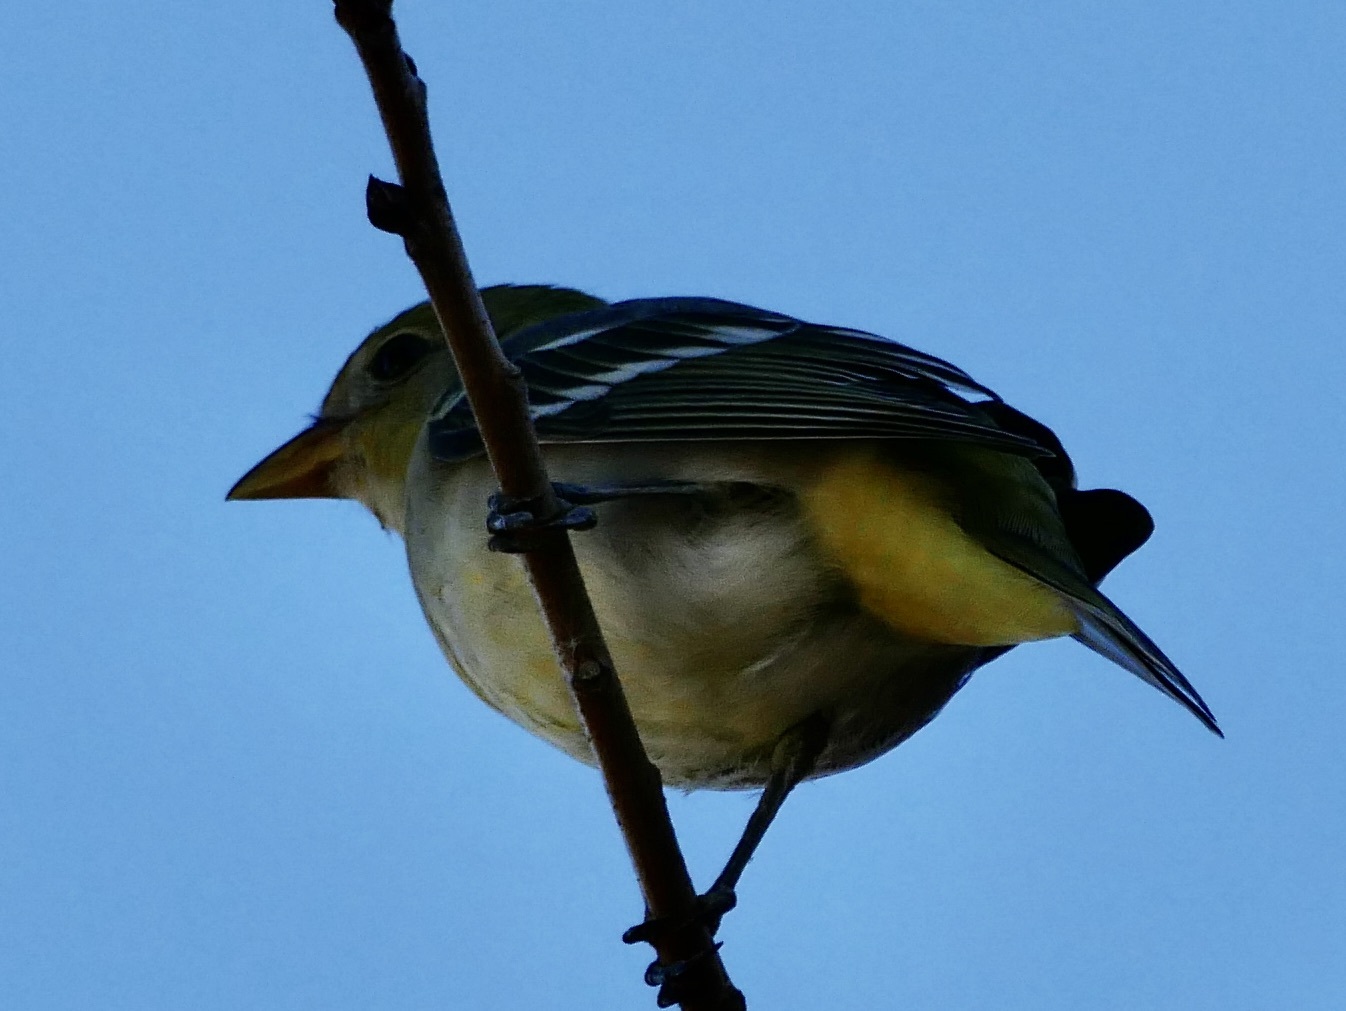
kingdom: Animalia
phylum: Chordata
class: Aves
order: Passeriformes
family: Cardinalidae
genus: Piranga
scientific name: Piranga ludoviciana
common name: Western tanager
